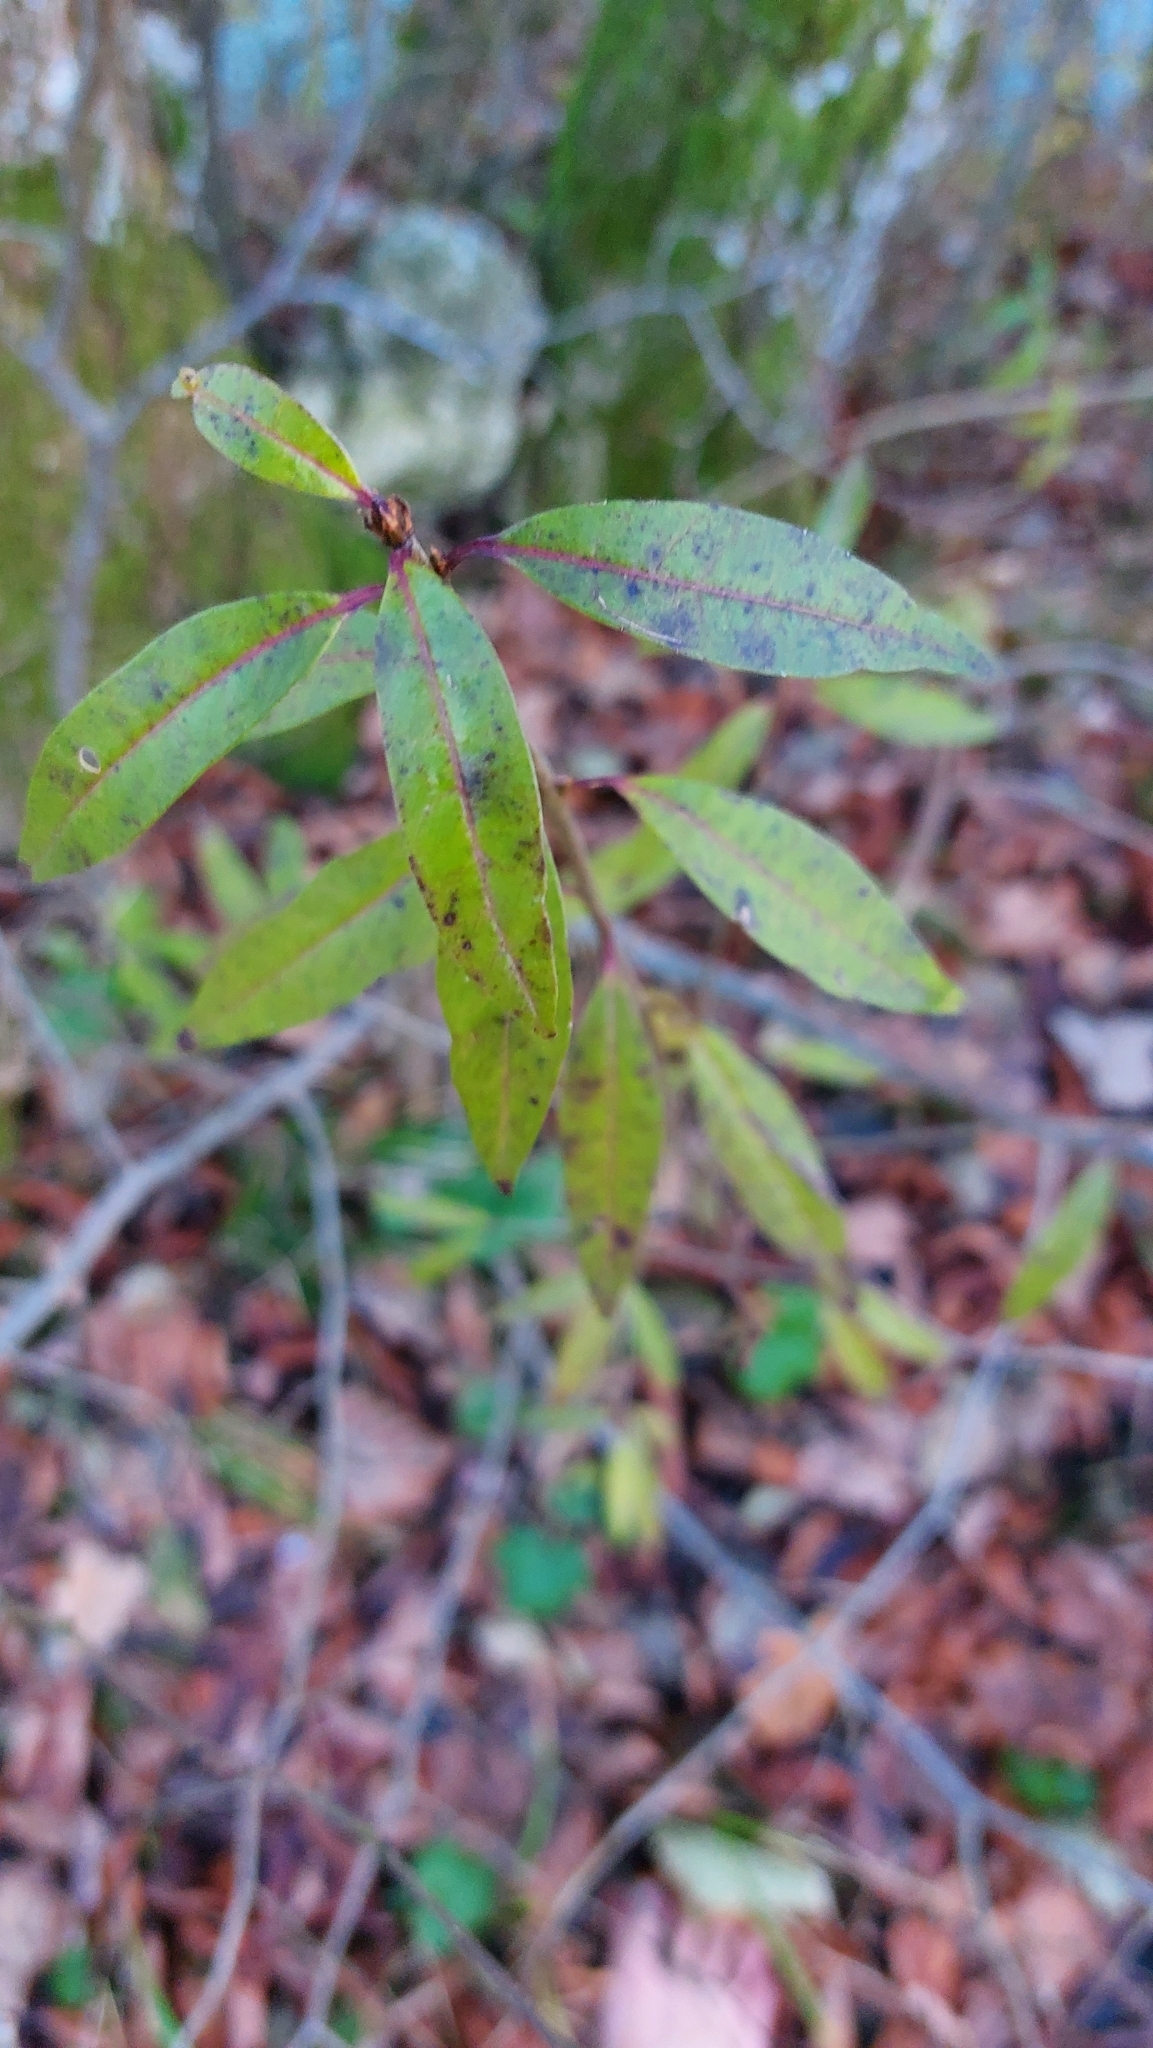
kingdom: Plantae
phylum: Tracheophyta
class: Magnoliopsida
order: Lamiales
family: Oleaceae
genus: Ligustrum
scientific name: Ligustrum vulgare
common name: Wild privet
